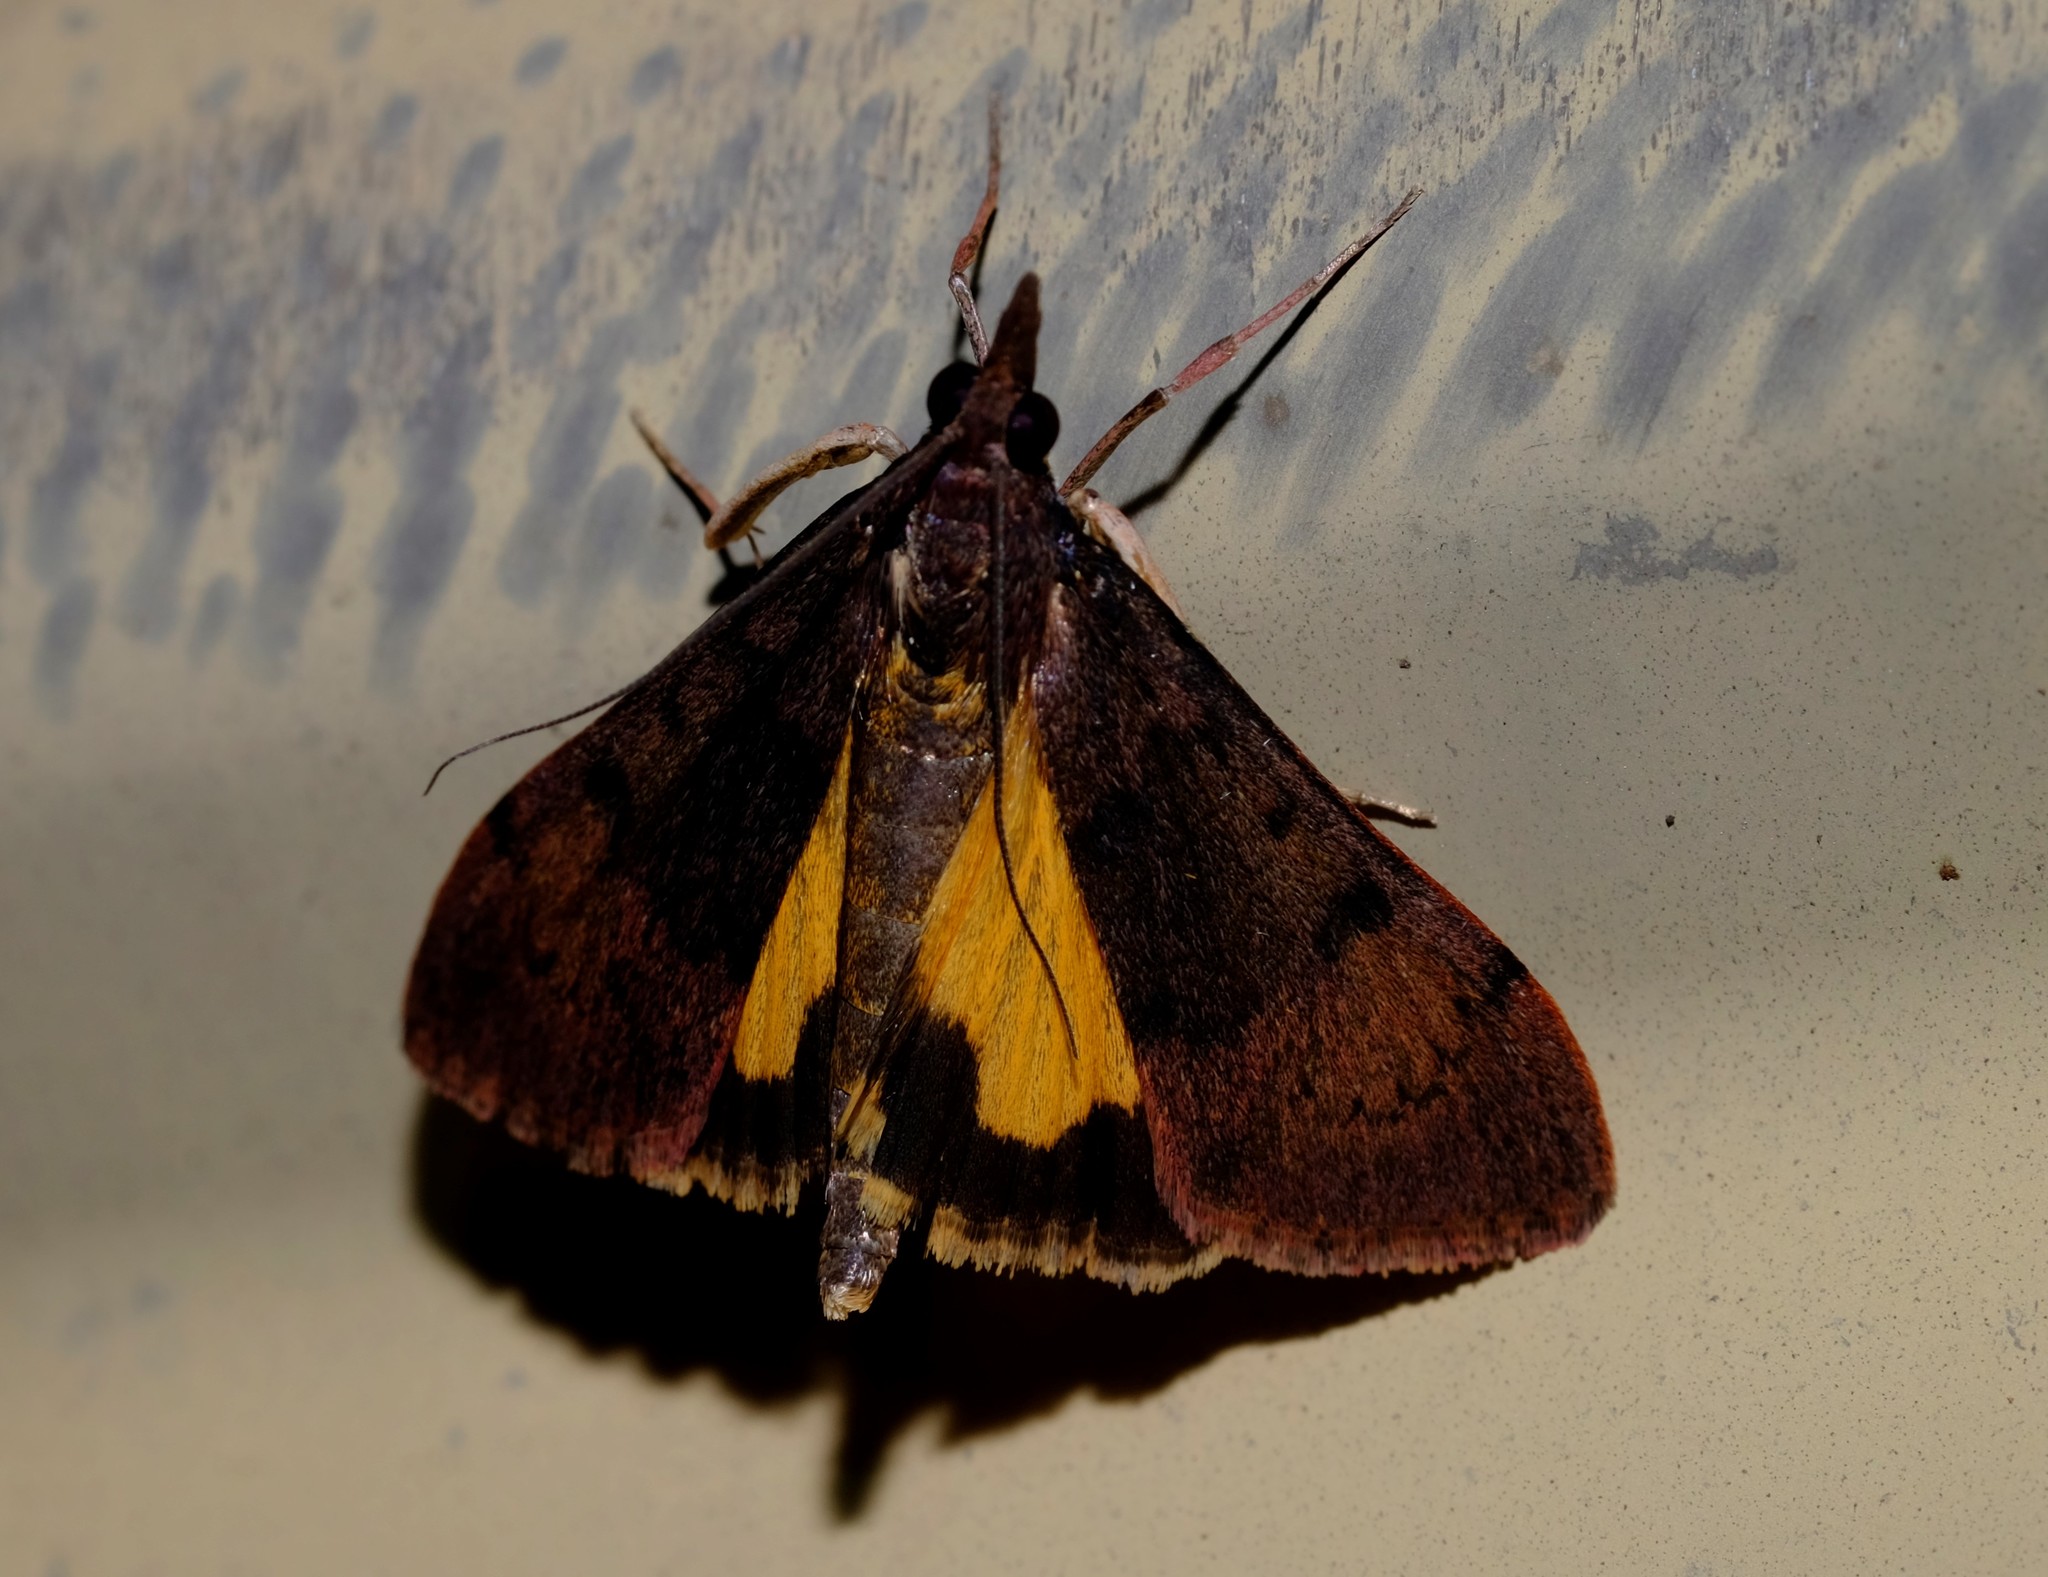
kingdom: Animalia
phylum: Arthropoda
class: Insecta
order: Lepidoptera
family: Crambidae
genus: Uresiphita
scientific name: Uresiphita ornithopteralis
